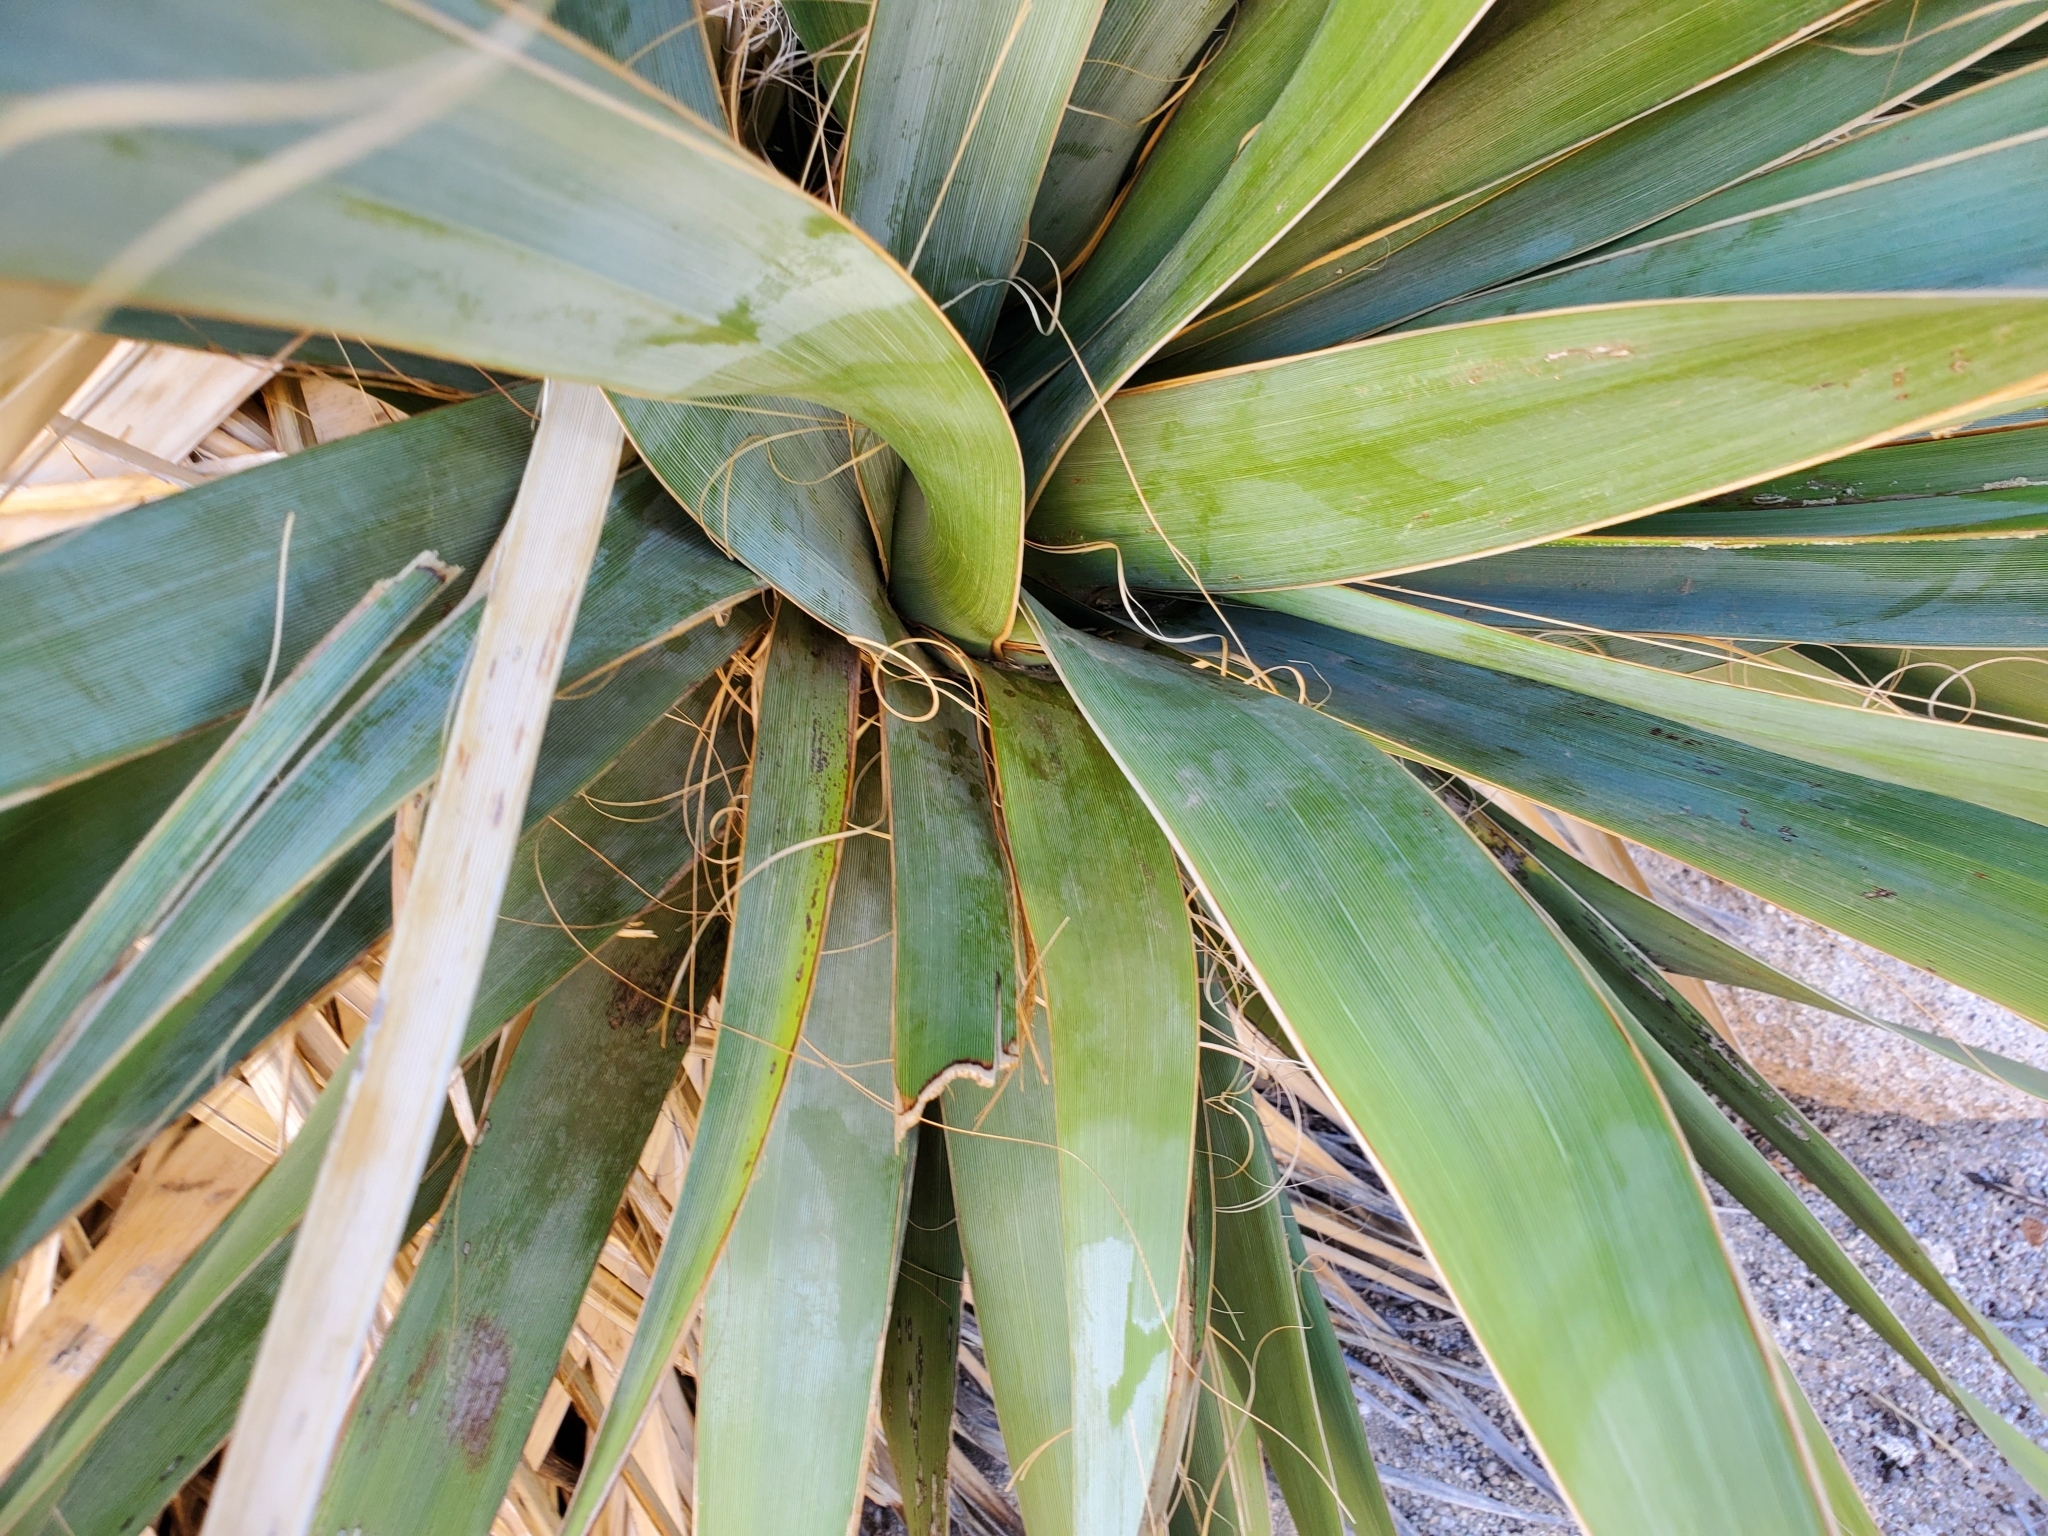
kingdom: Plantae
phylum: Tracheophyta
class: Liliopsida
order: Asparagales
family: Asparagaceae
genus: Nolina
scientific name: Nolina bigelovii
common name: Bigelow bear-grass
